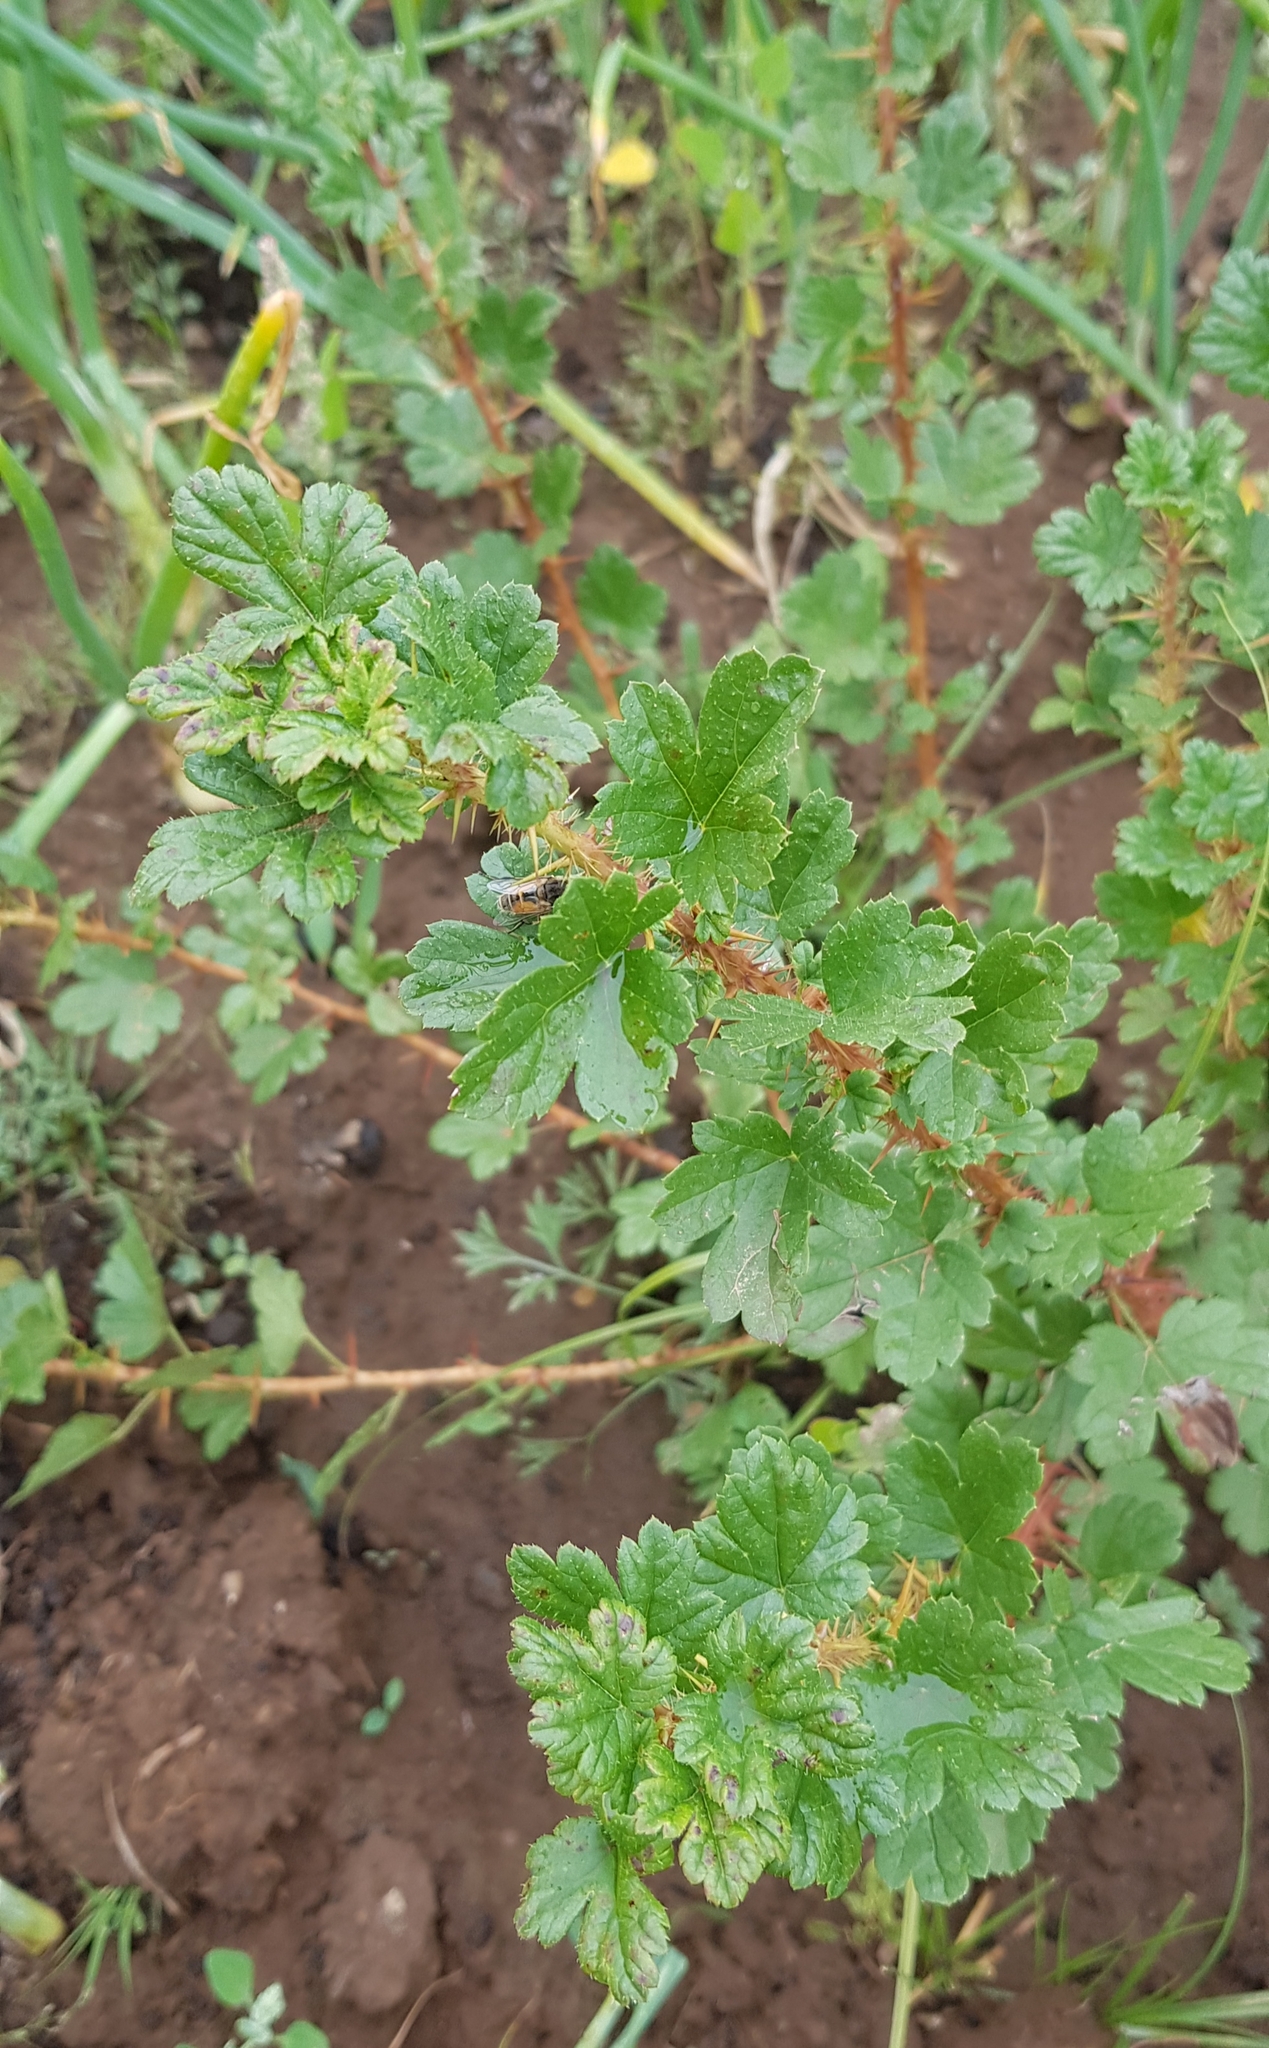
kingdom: Plantae
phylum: Tracheophyta
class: Magnoliopsida
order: Saxifragales
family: Grossulariaceae
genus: Ribes
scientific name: Ribes aciculare
